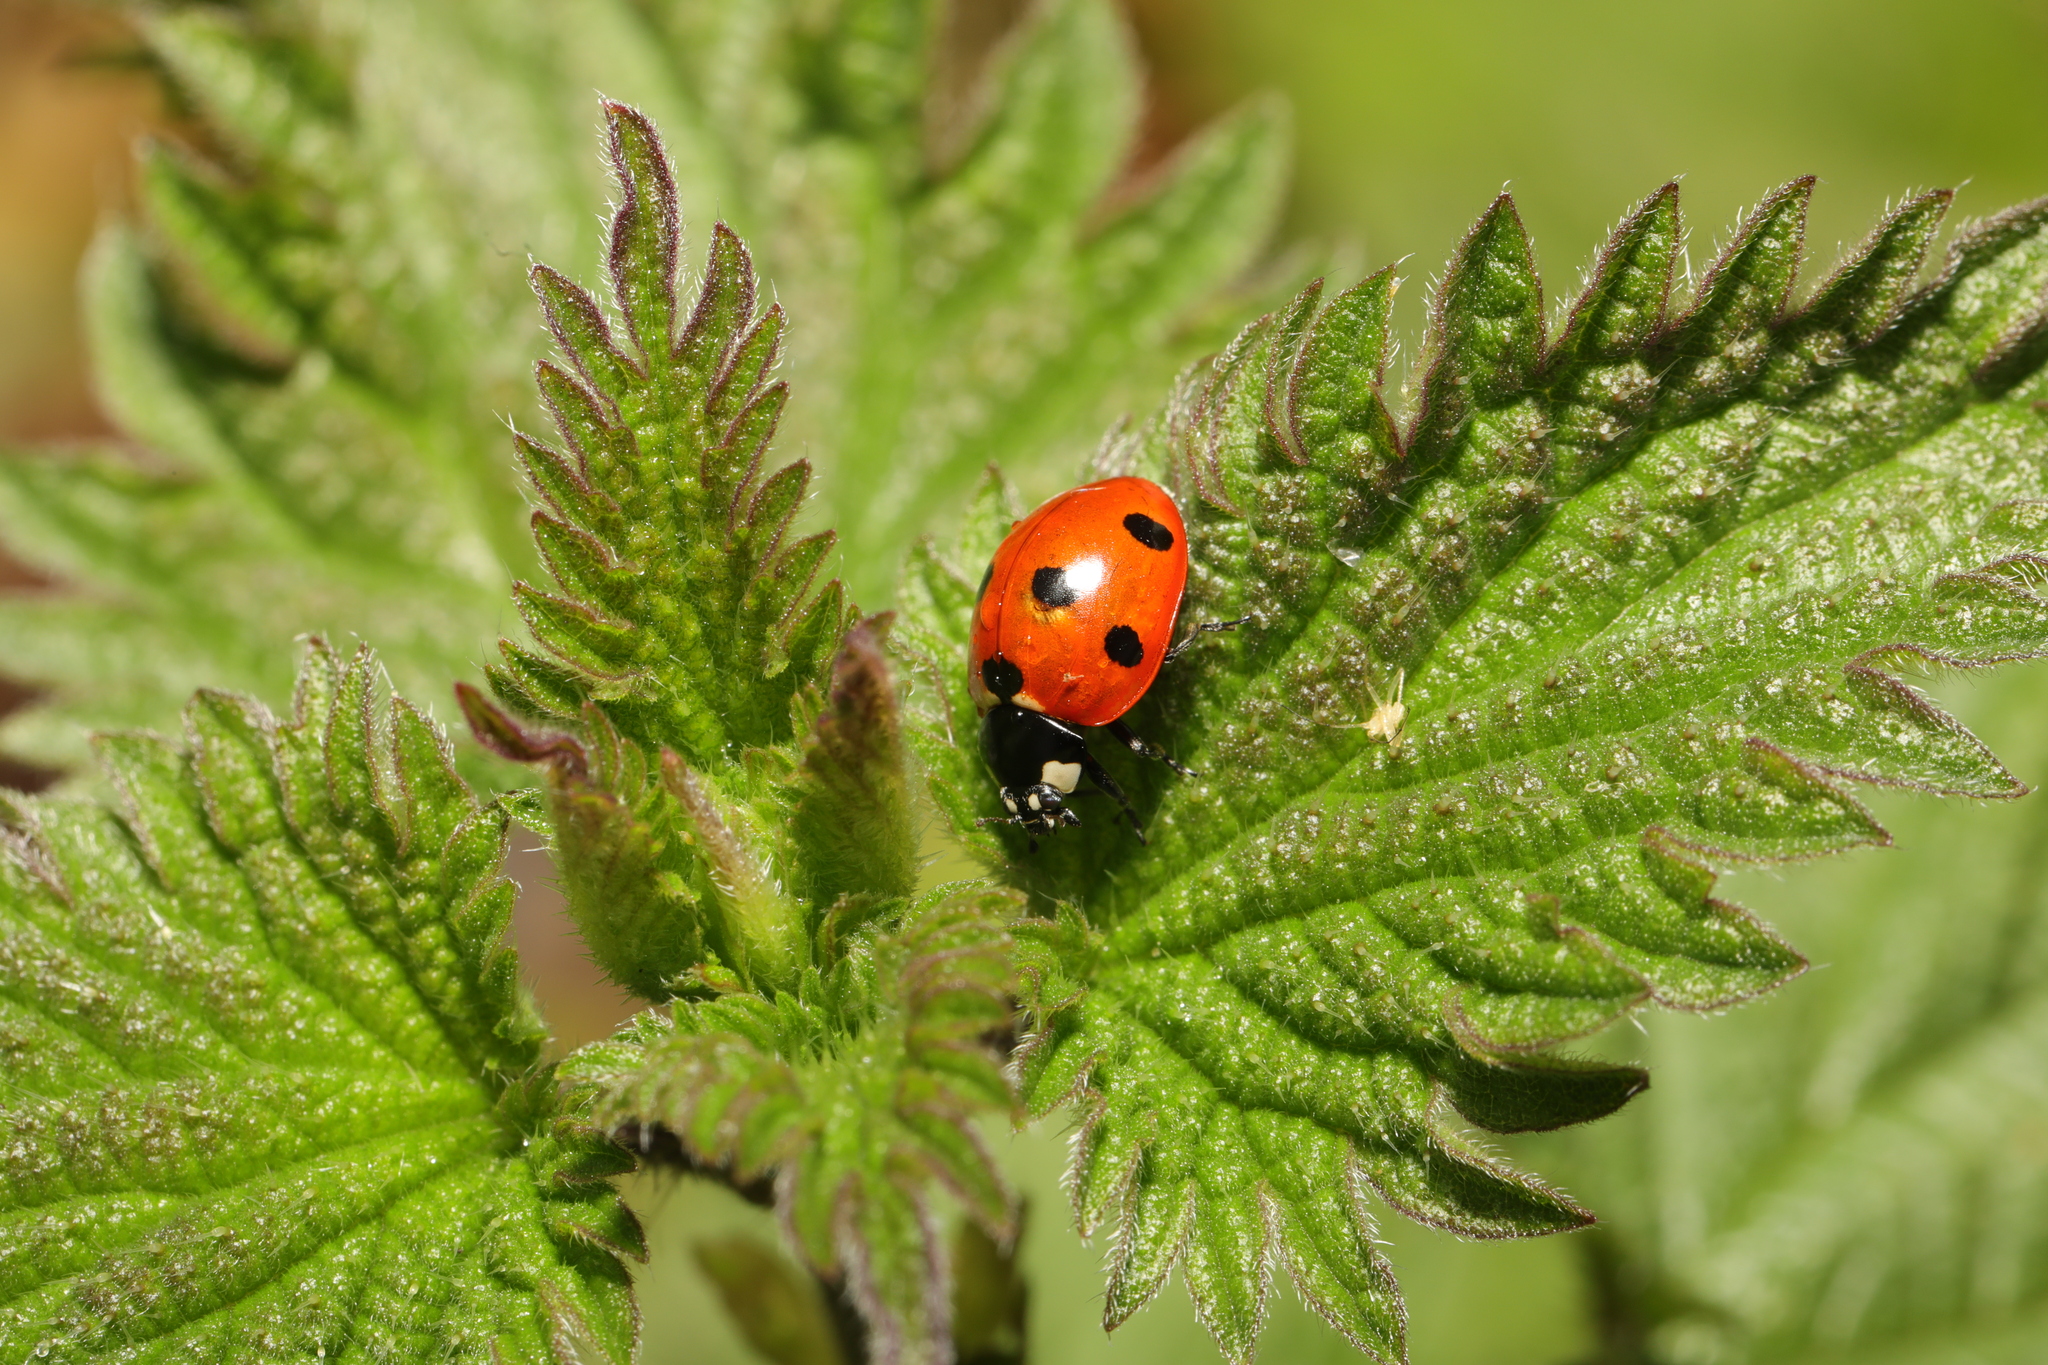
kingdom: Animalia
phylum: Arthropoda
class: Insecta
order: Coleoptera
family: Coccinellidae
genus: Coccinella
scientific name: Coccinella septempunctata
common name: Sevenspotted lady beetle
